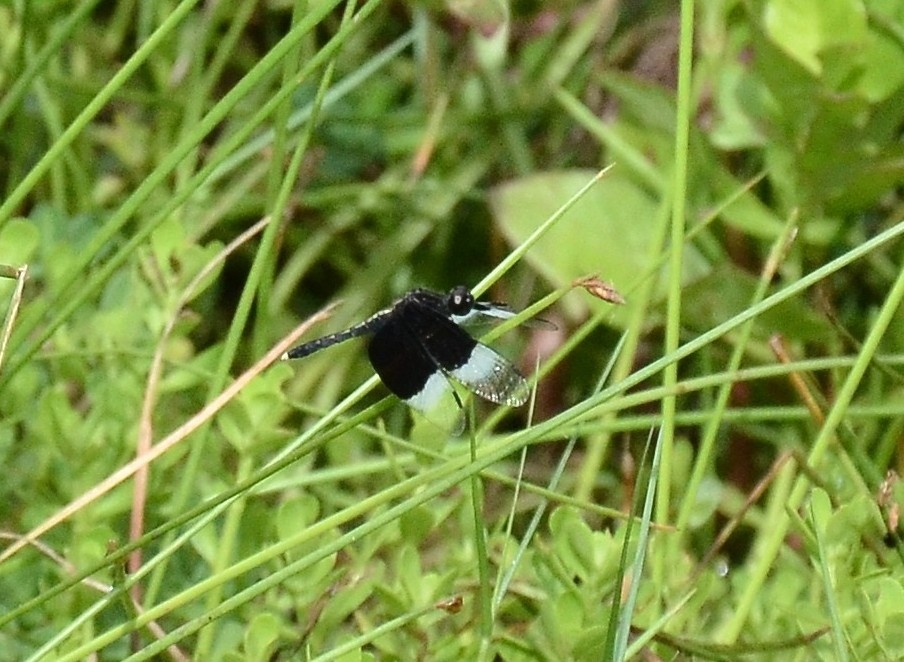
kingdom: Animalia
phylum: Arthropoda
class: Insecta
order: Odonata
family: Libellulidae
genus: Neurothemis
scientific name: Neurothemis tullia
